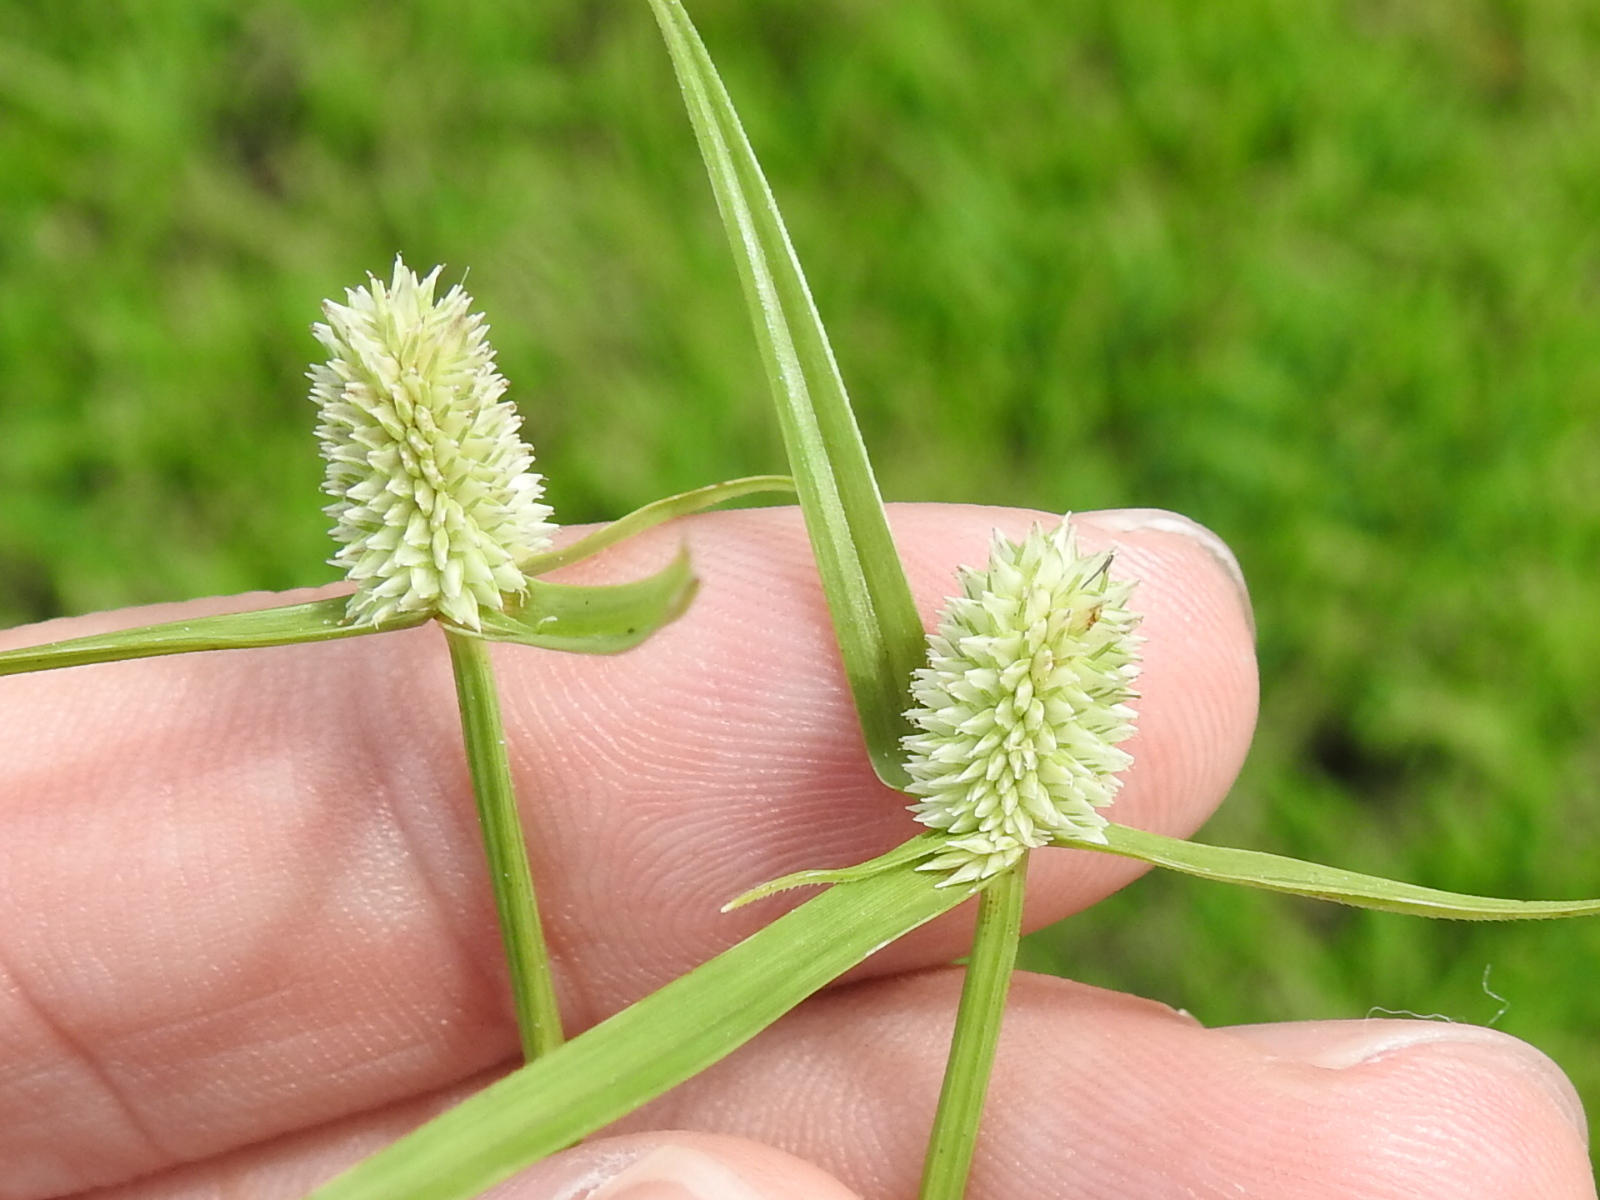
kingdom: Plantae
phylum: Tracheophyta
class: Liliopsida
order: Poales
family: Cyperaceae
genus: Cyperus
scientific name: Cyperus sesquiflorus
